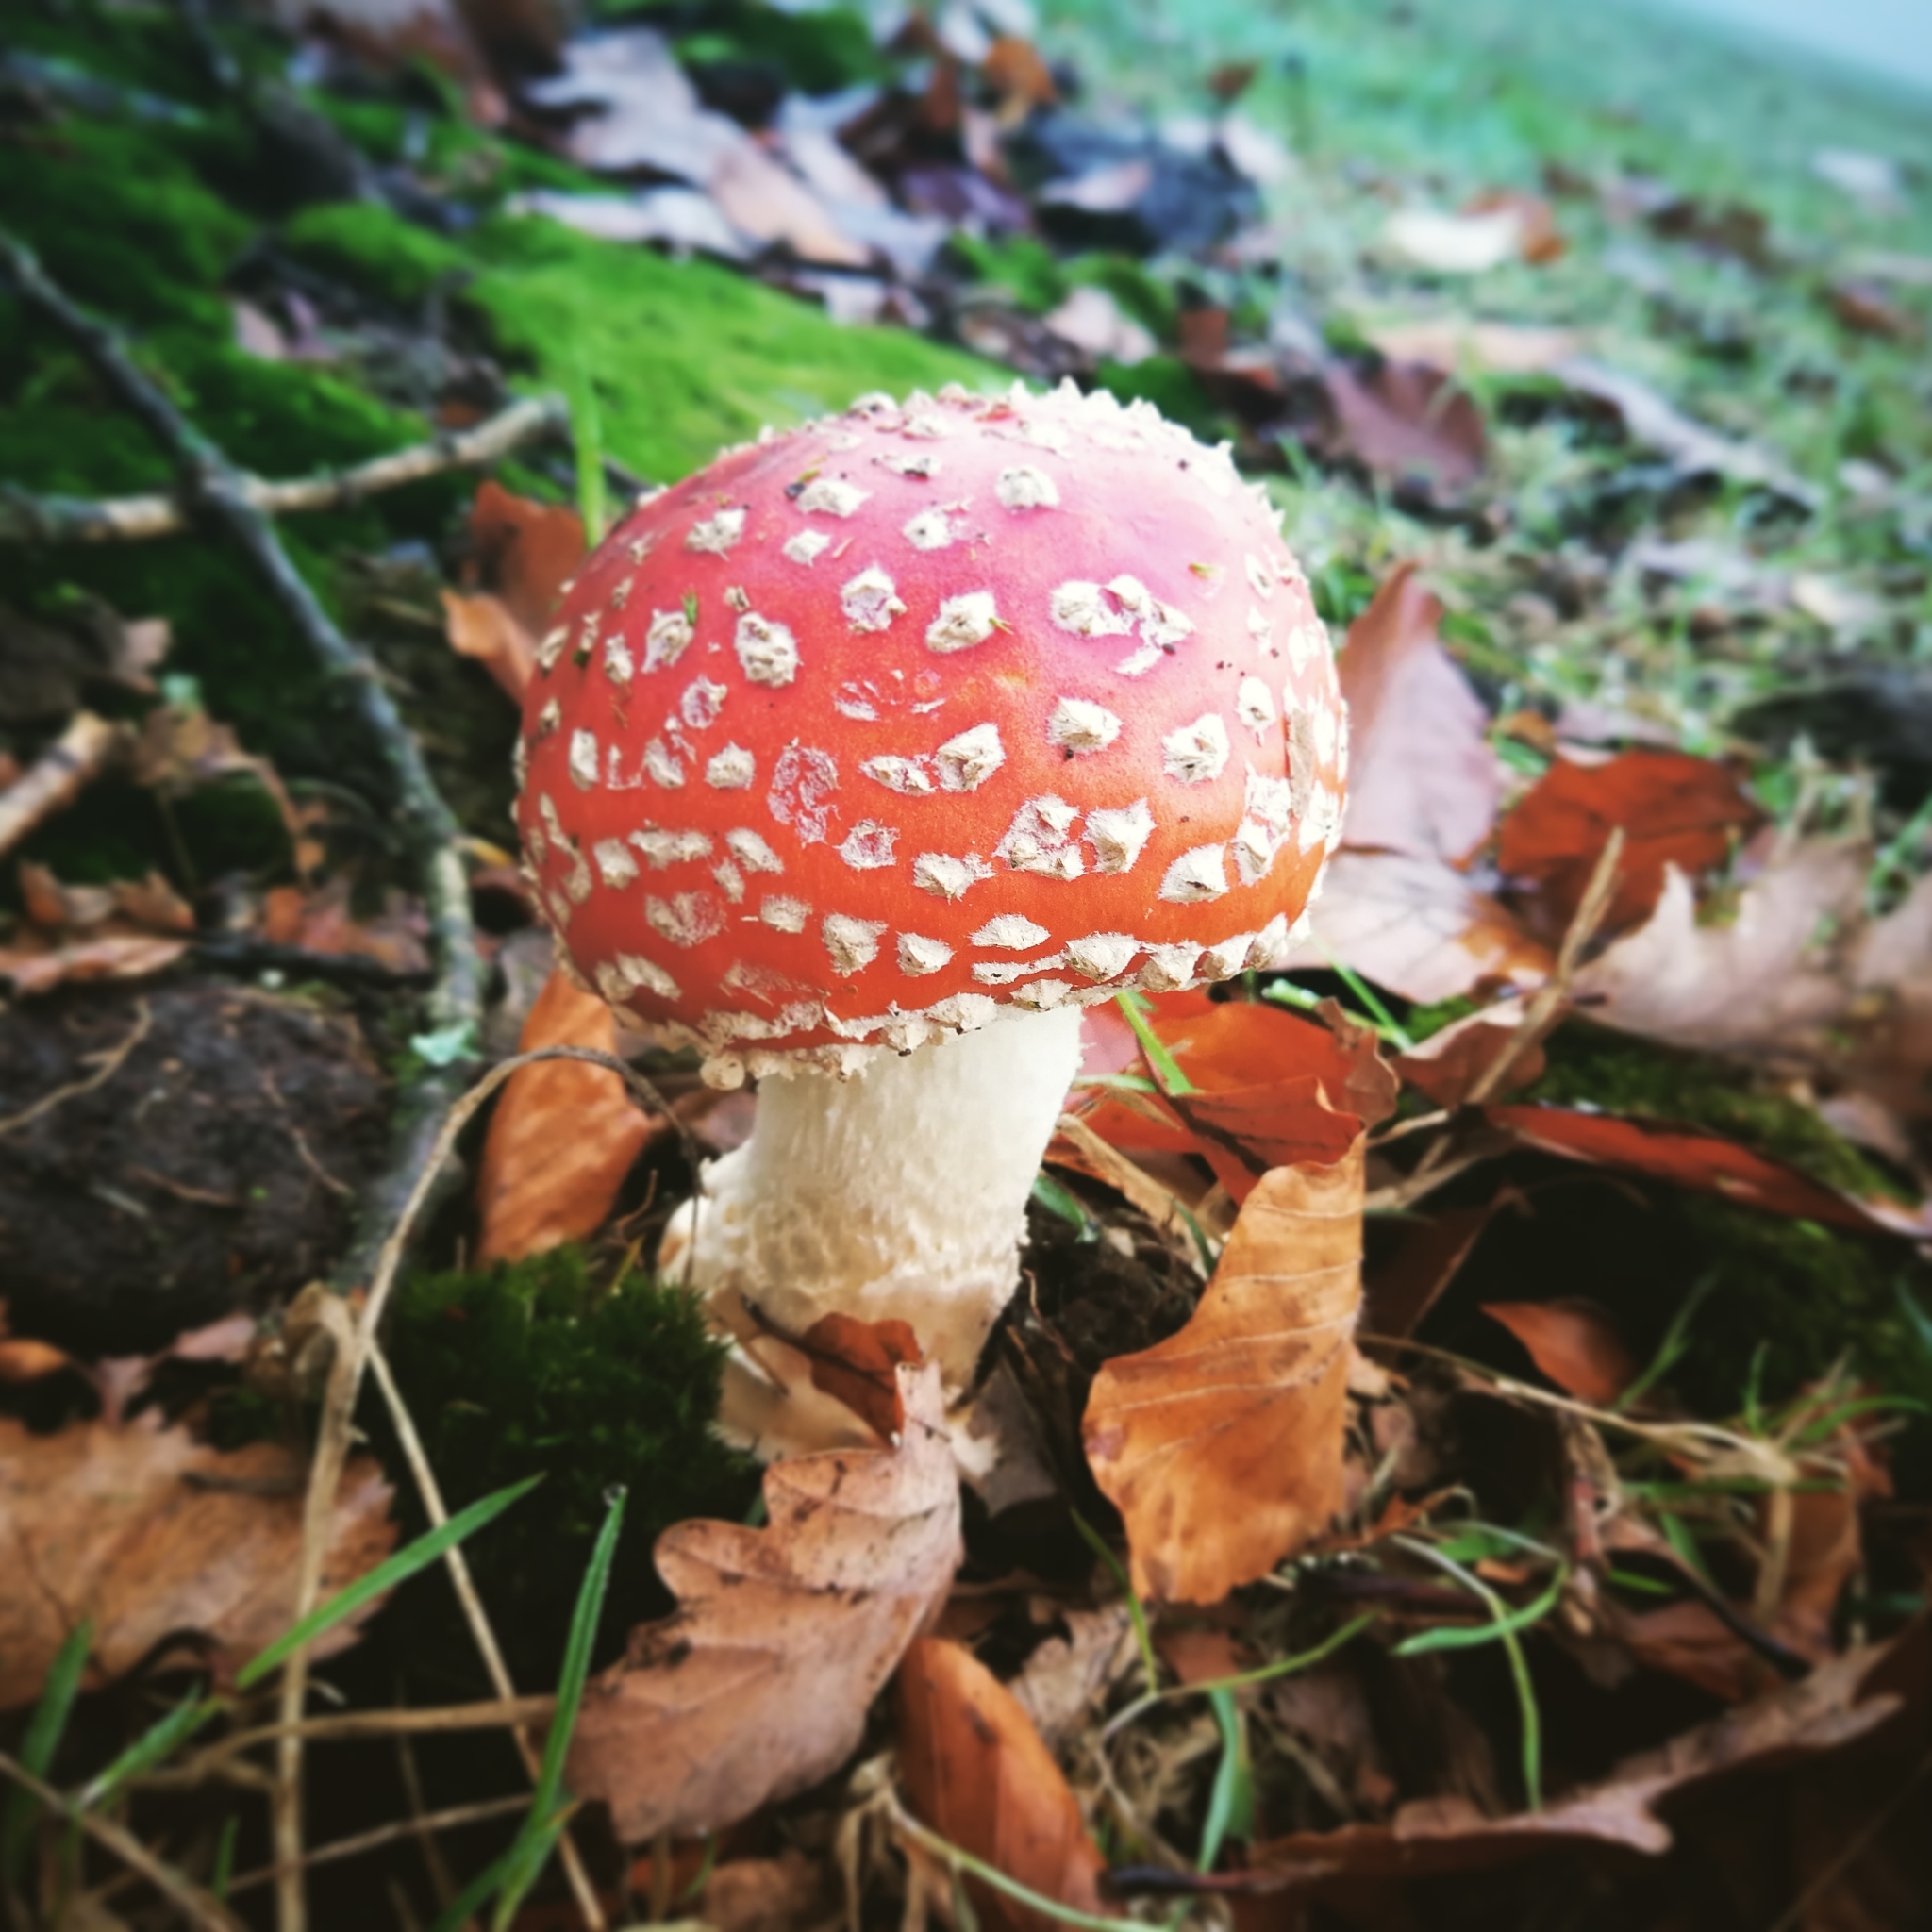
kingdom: Fungi
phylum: Basidiomycota
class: Agaricomycetes
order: Agaricales
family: Amanitaceae
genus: Amanita
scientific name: Amanita muscaria
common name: Fly agaric
